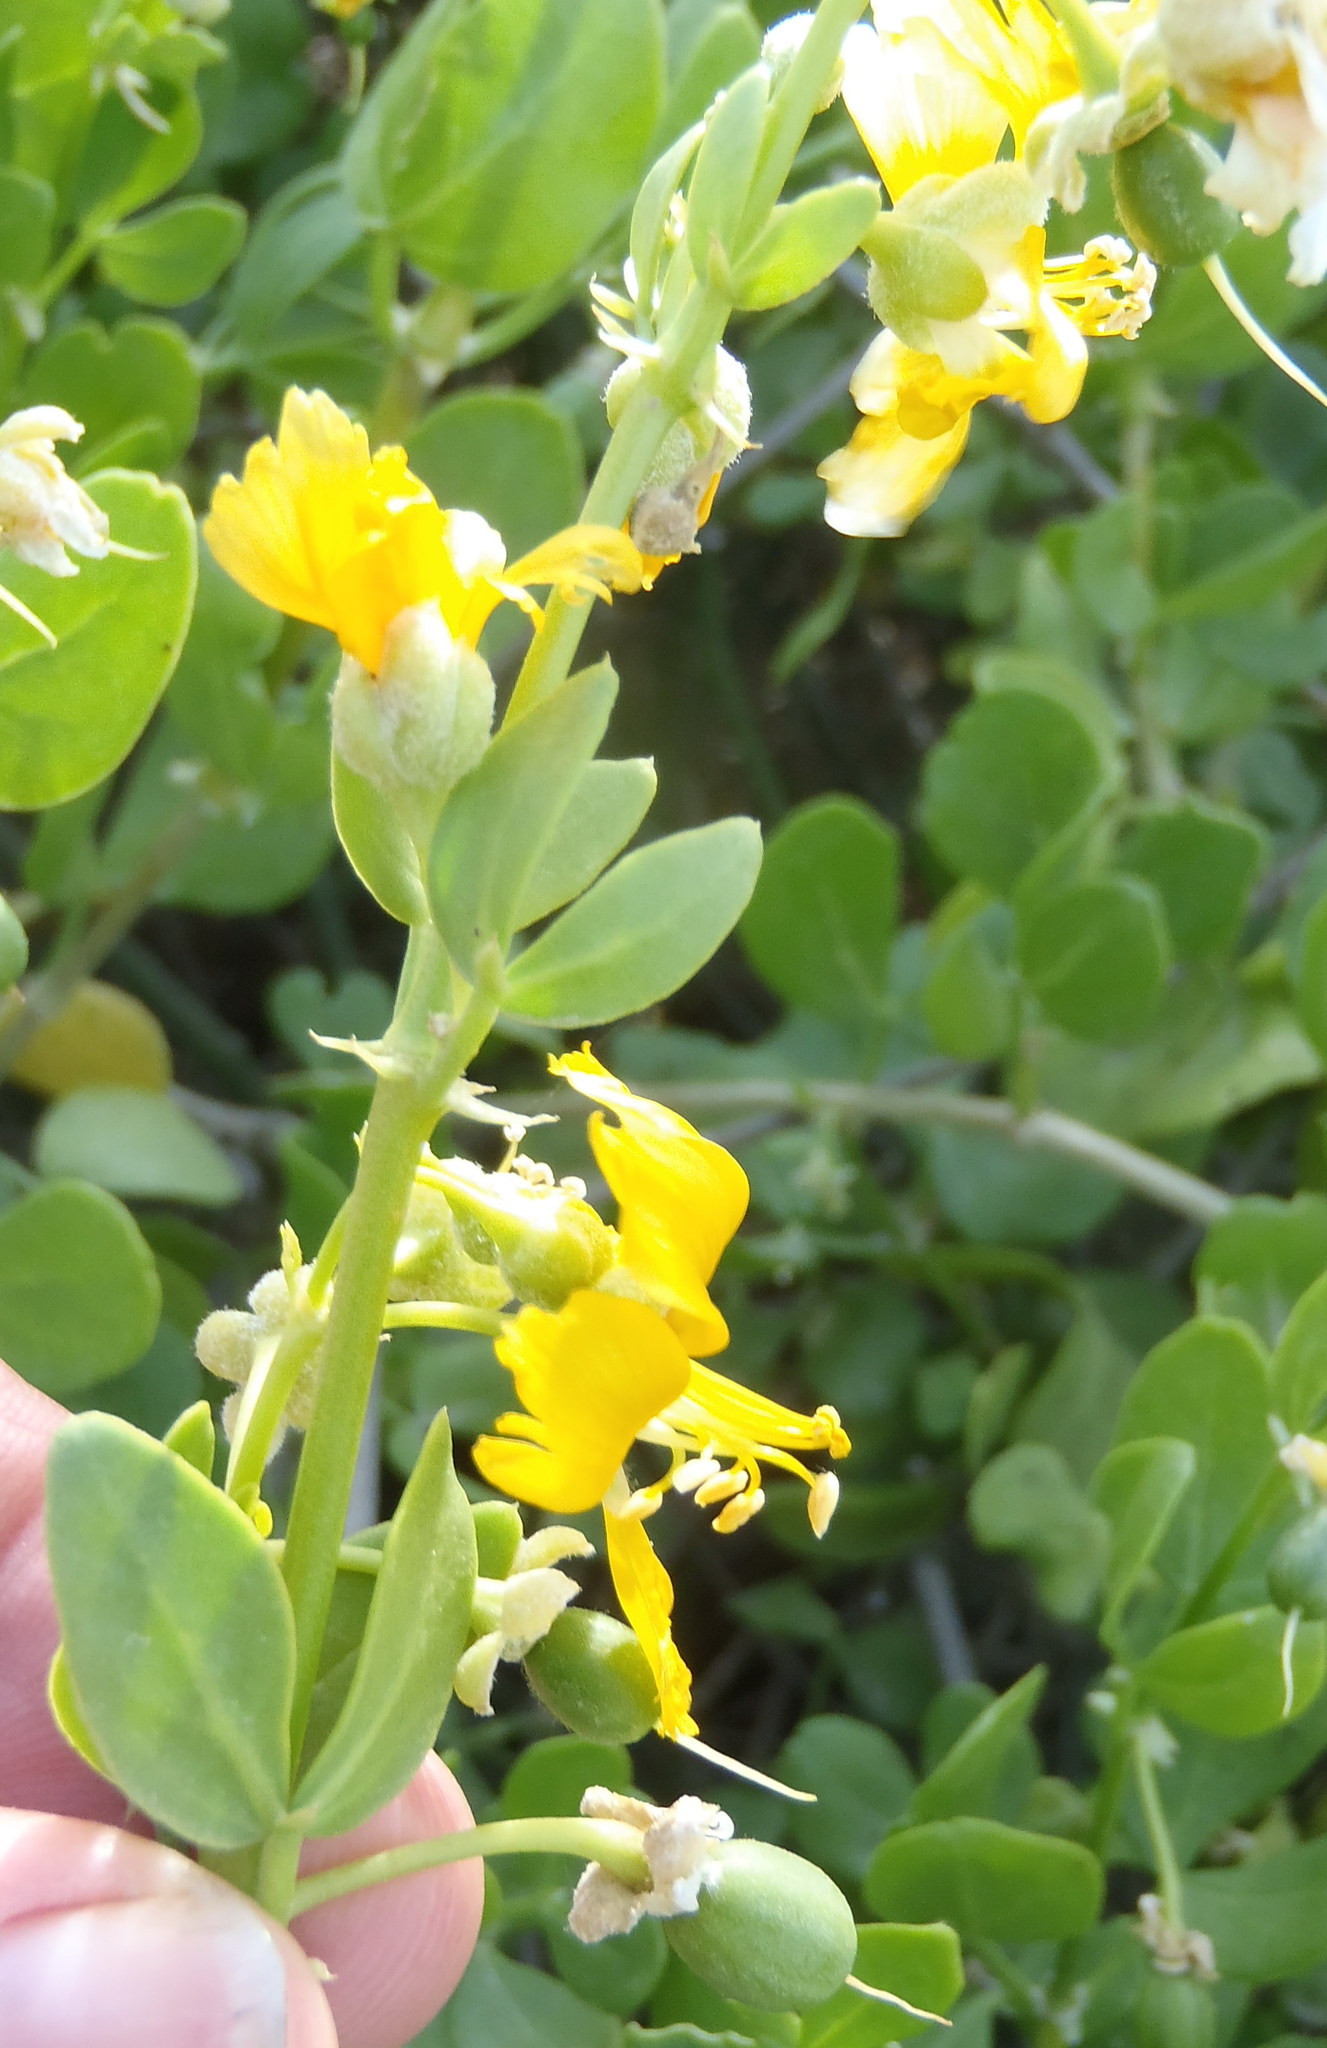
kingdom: Plantae
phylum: Tracheophyta
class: Magnoliopsida
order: Zygophyllales
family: Zygophyllaceae
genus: Roepera
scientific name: Roepera foetida
